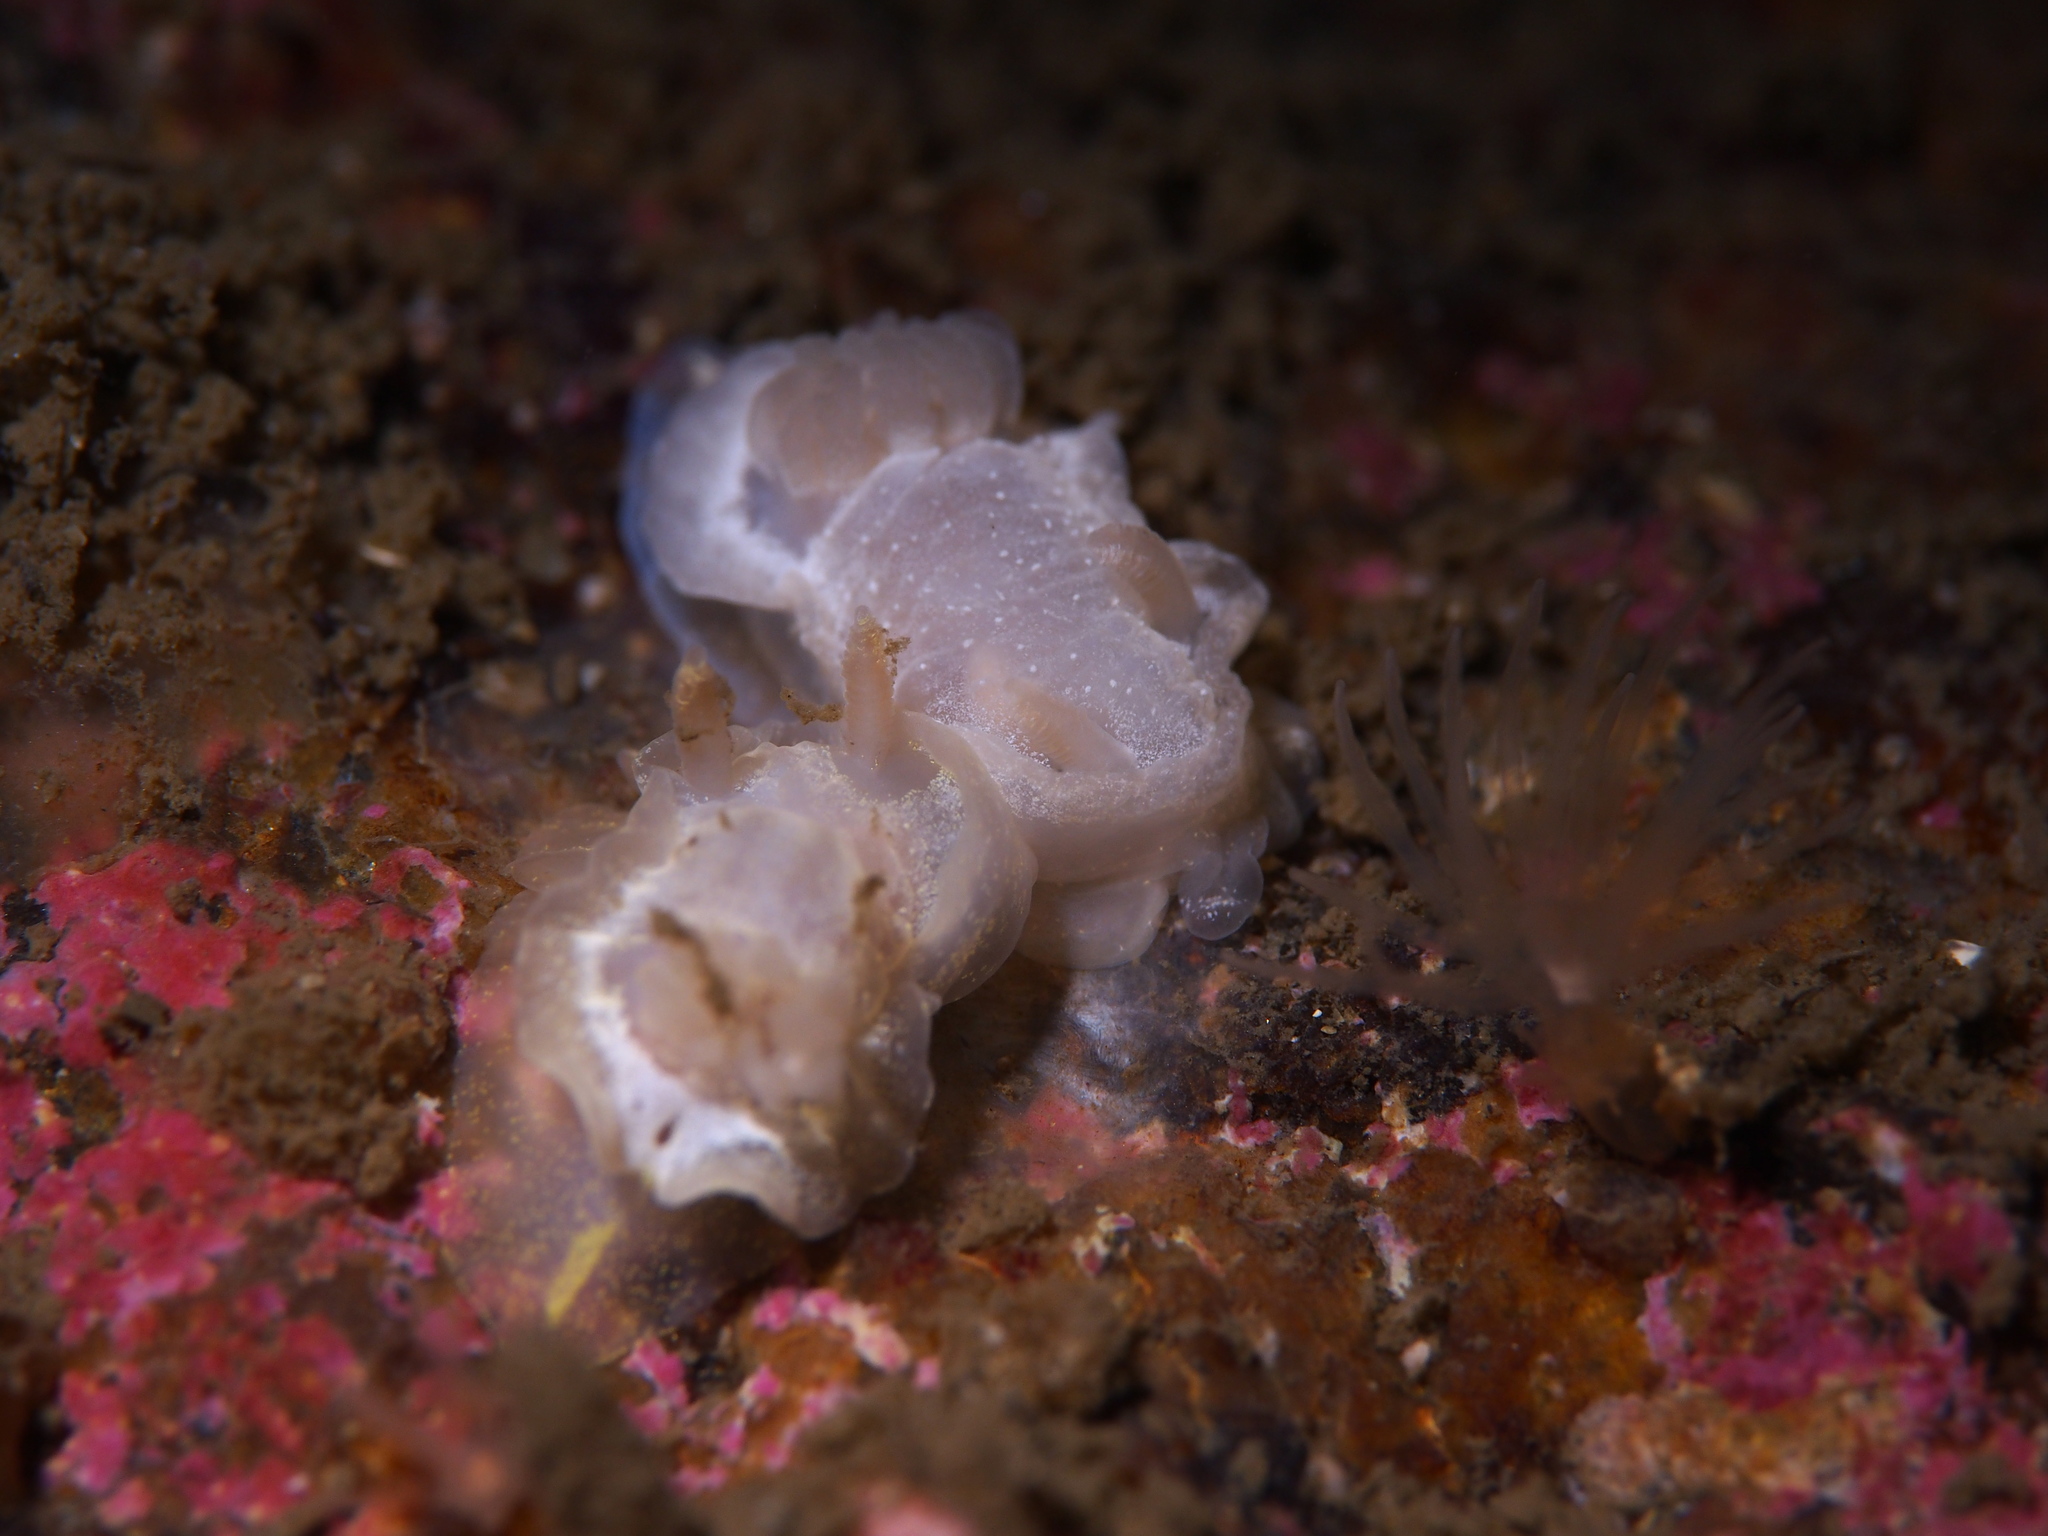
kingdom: Animalia
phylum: Mollusca
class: Gastropoda
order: Nudibranchia
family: Goniodorididae
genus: Okenia
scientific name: Okenia
